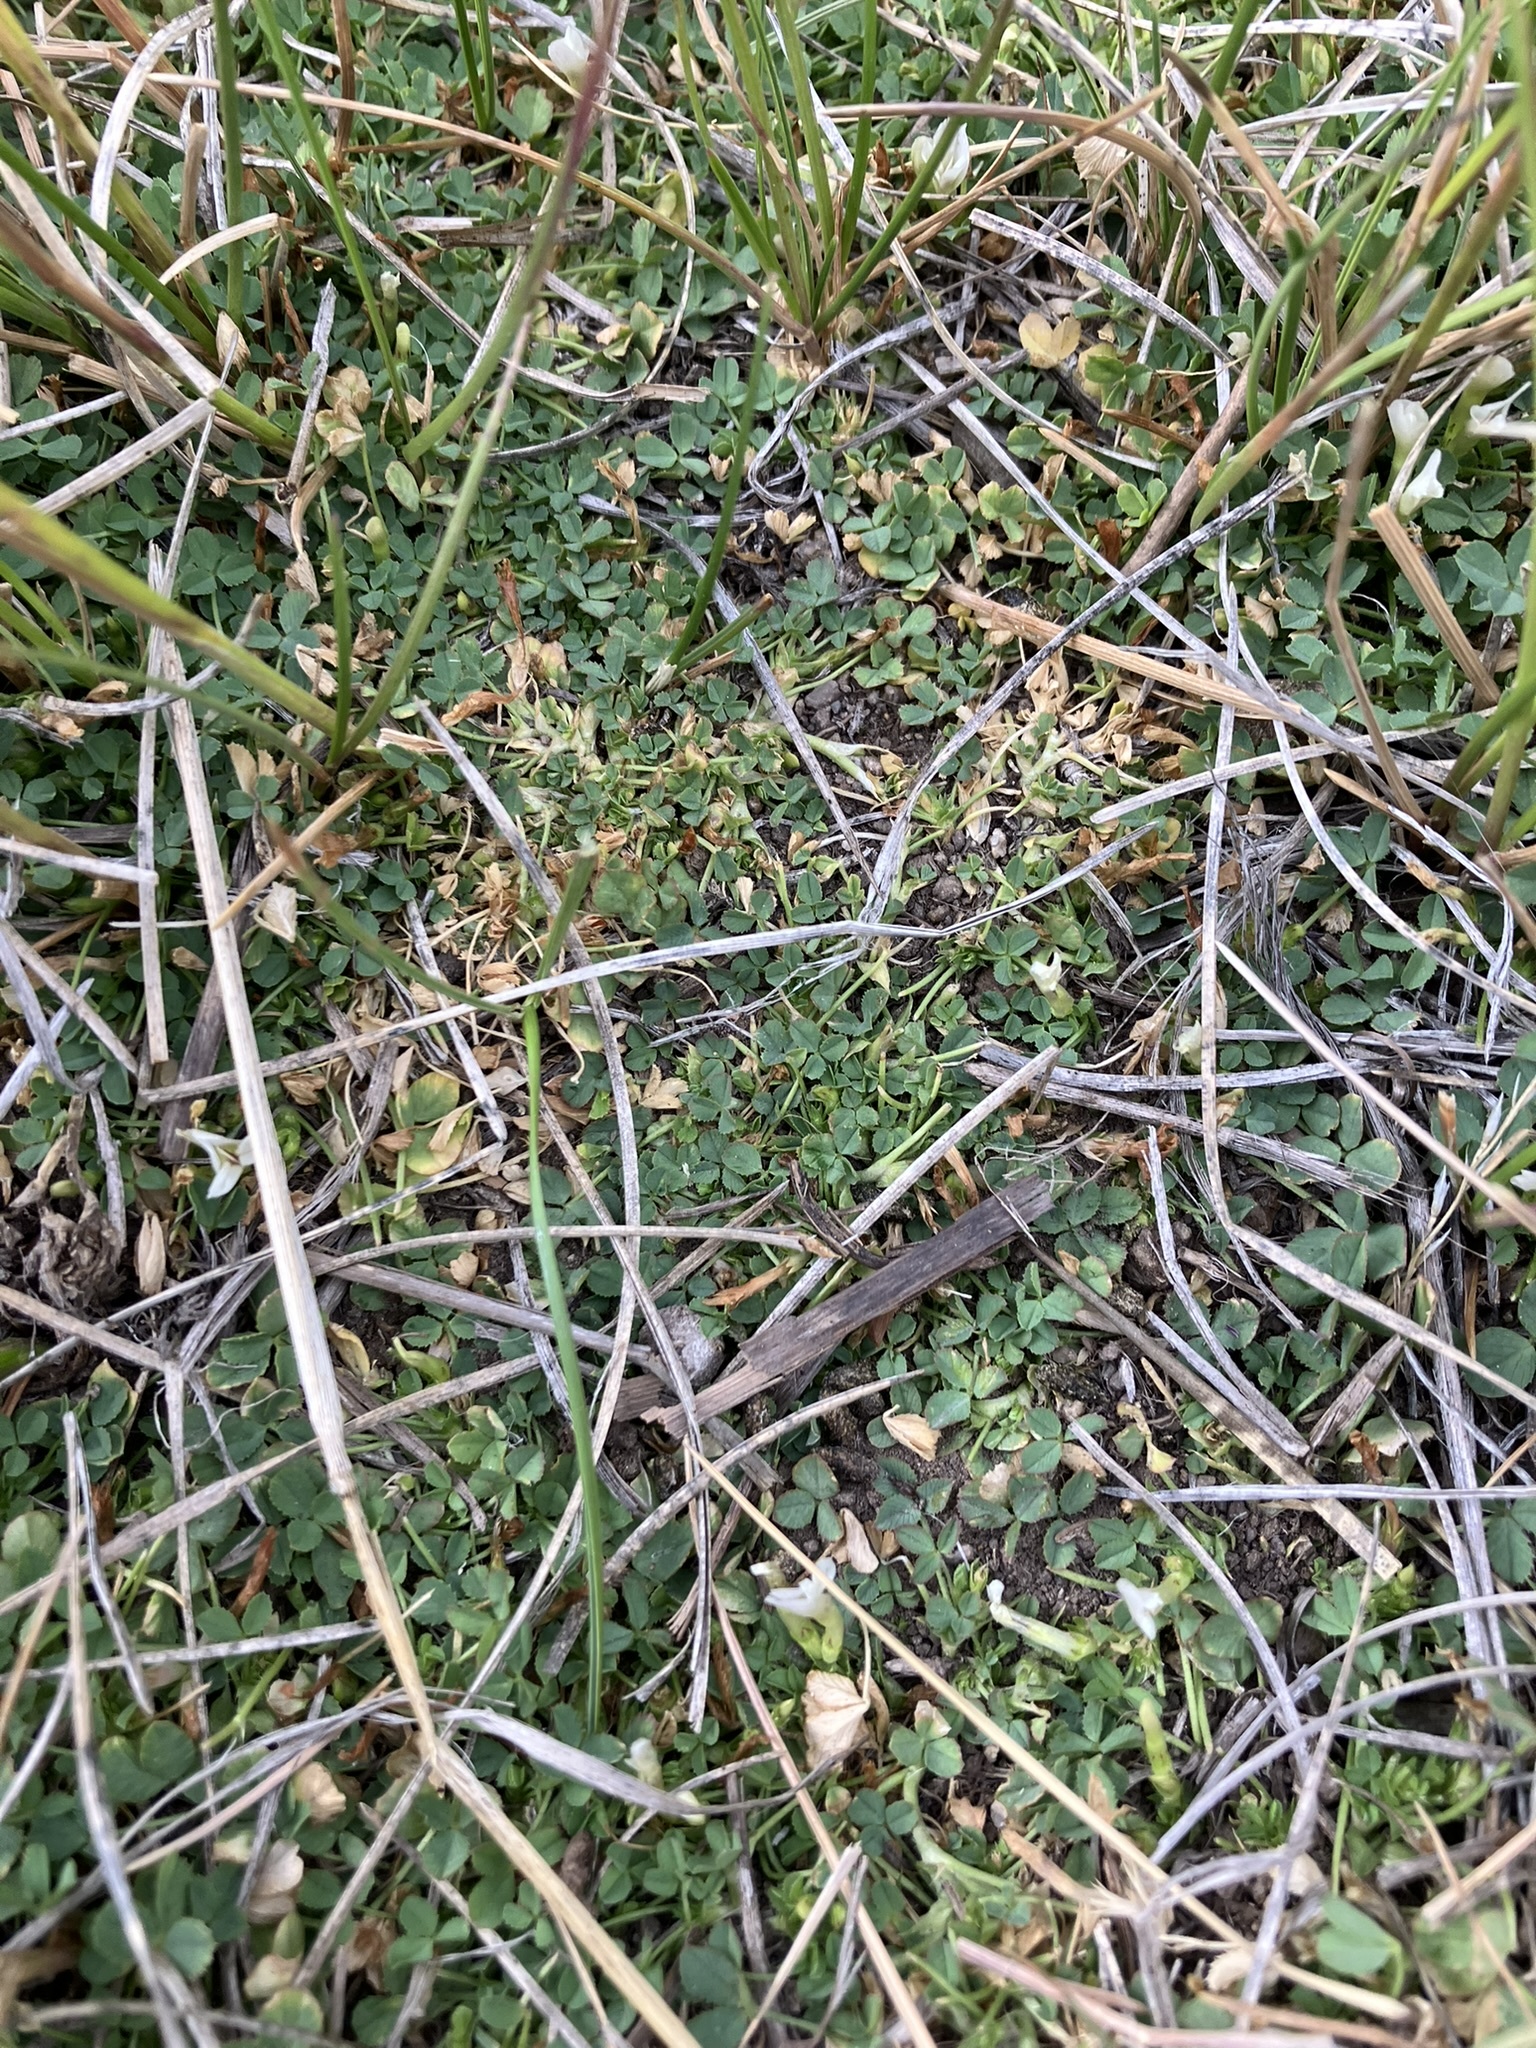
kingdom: Plantae
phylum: Tracheophyta
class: Magnoliopsida
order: Fabales
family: Fabaceae
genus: Trifolium
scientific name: Trifolium monanthum
